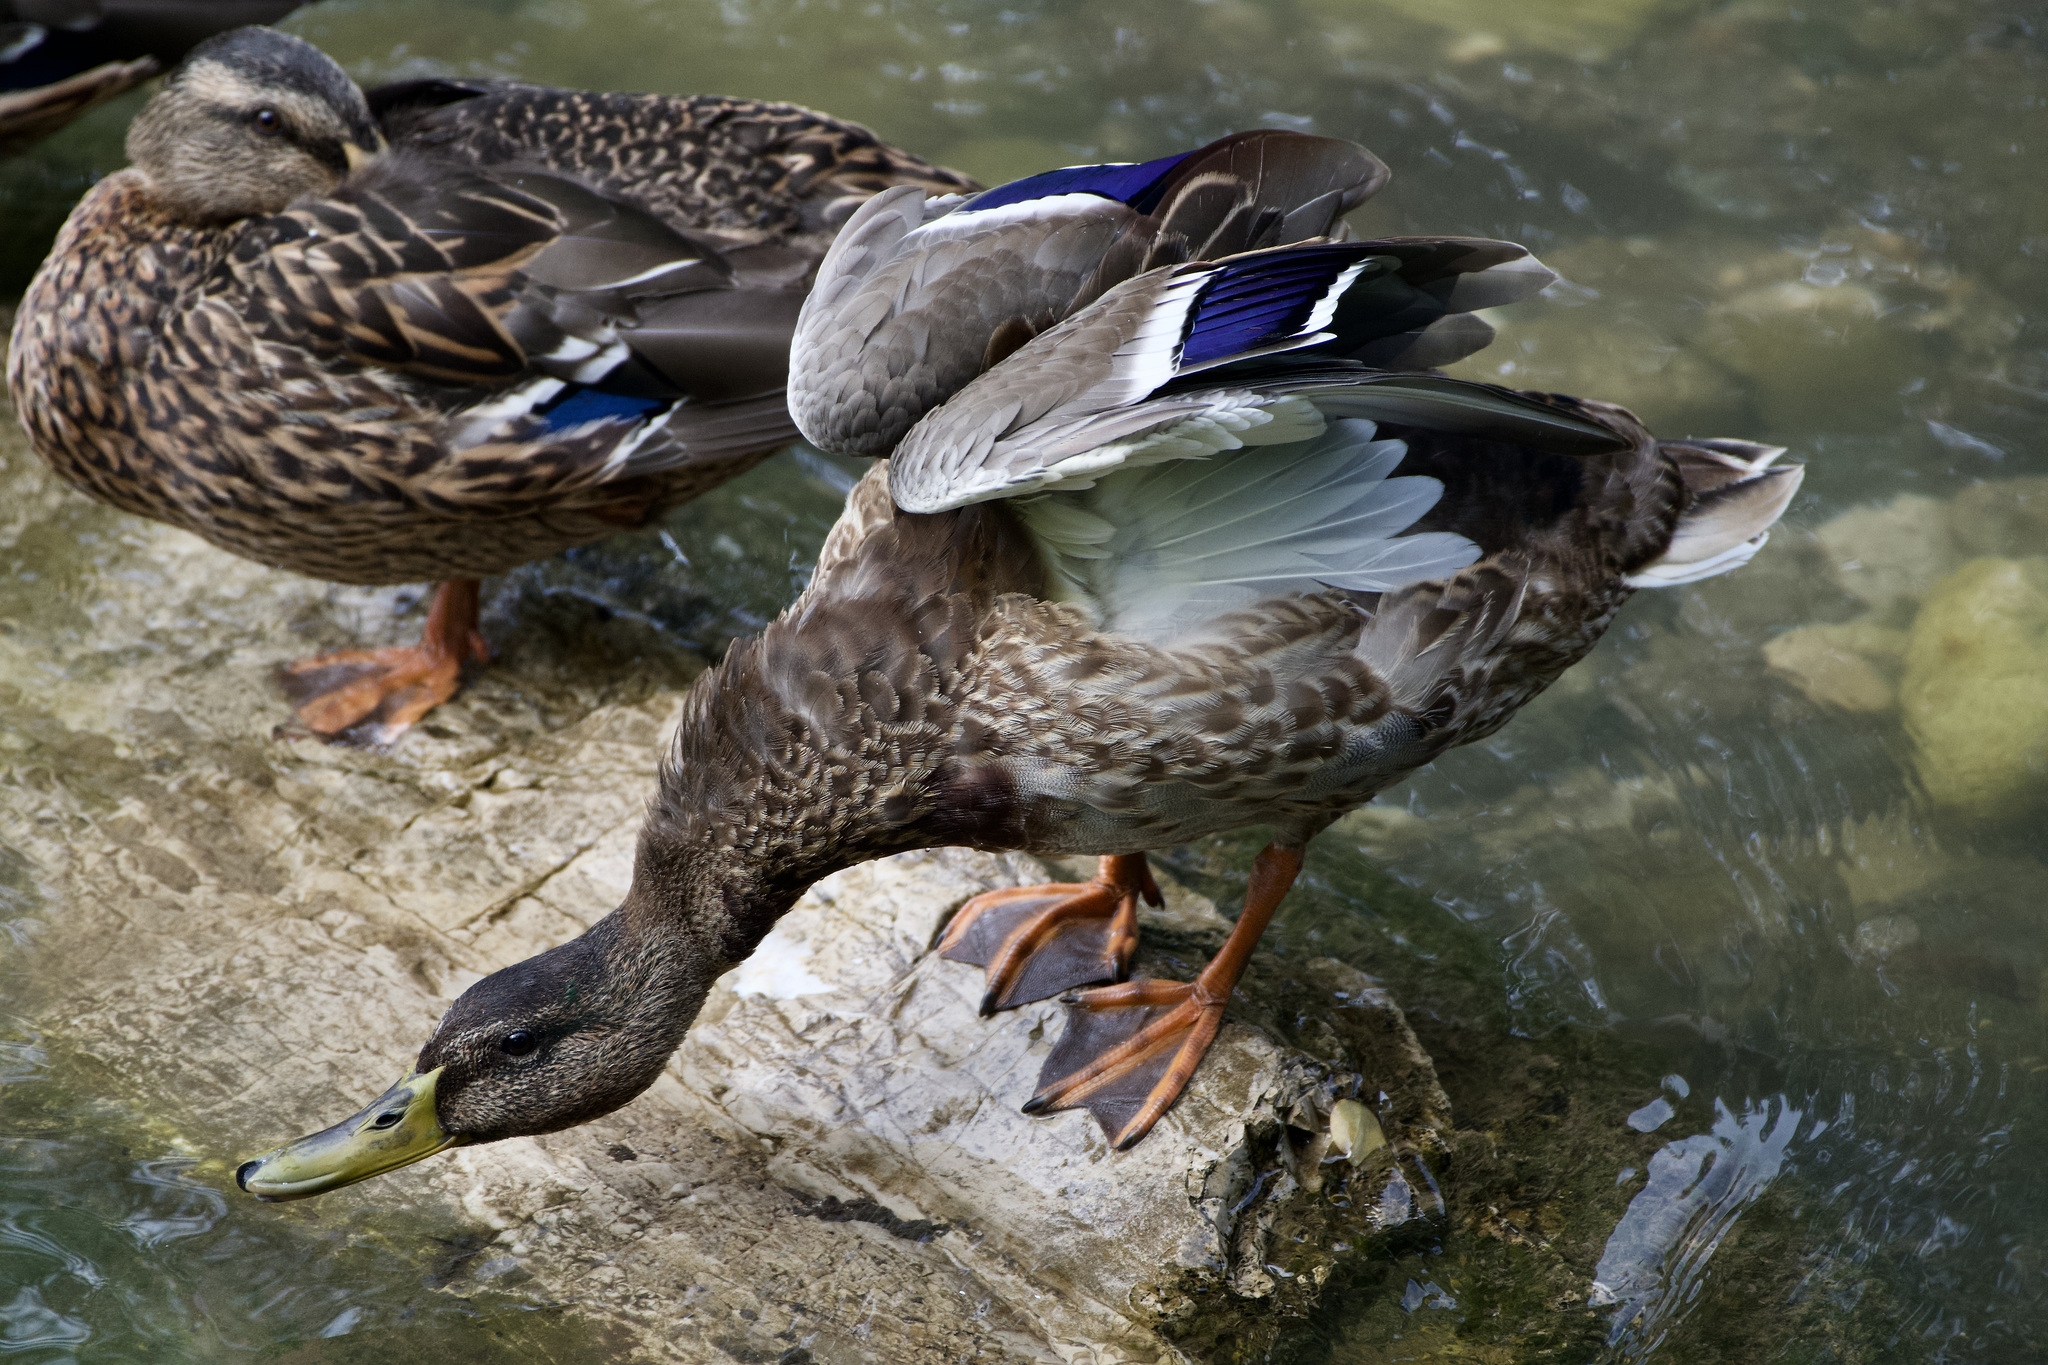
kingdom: Animalia
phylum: Chordata
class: Aves
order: Anseriformes
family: Anatidae
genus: Anas
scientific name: Anas platyrhynchos
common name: Mallard
